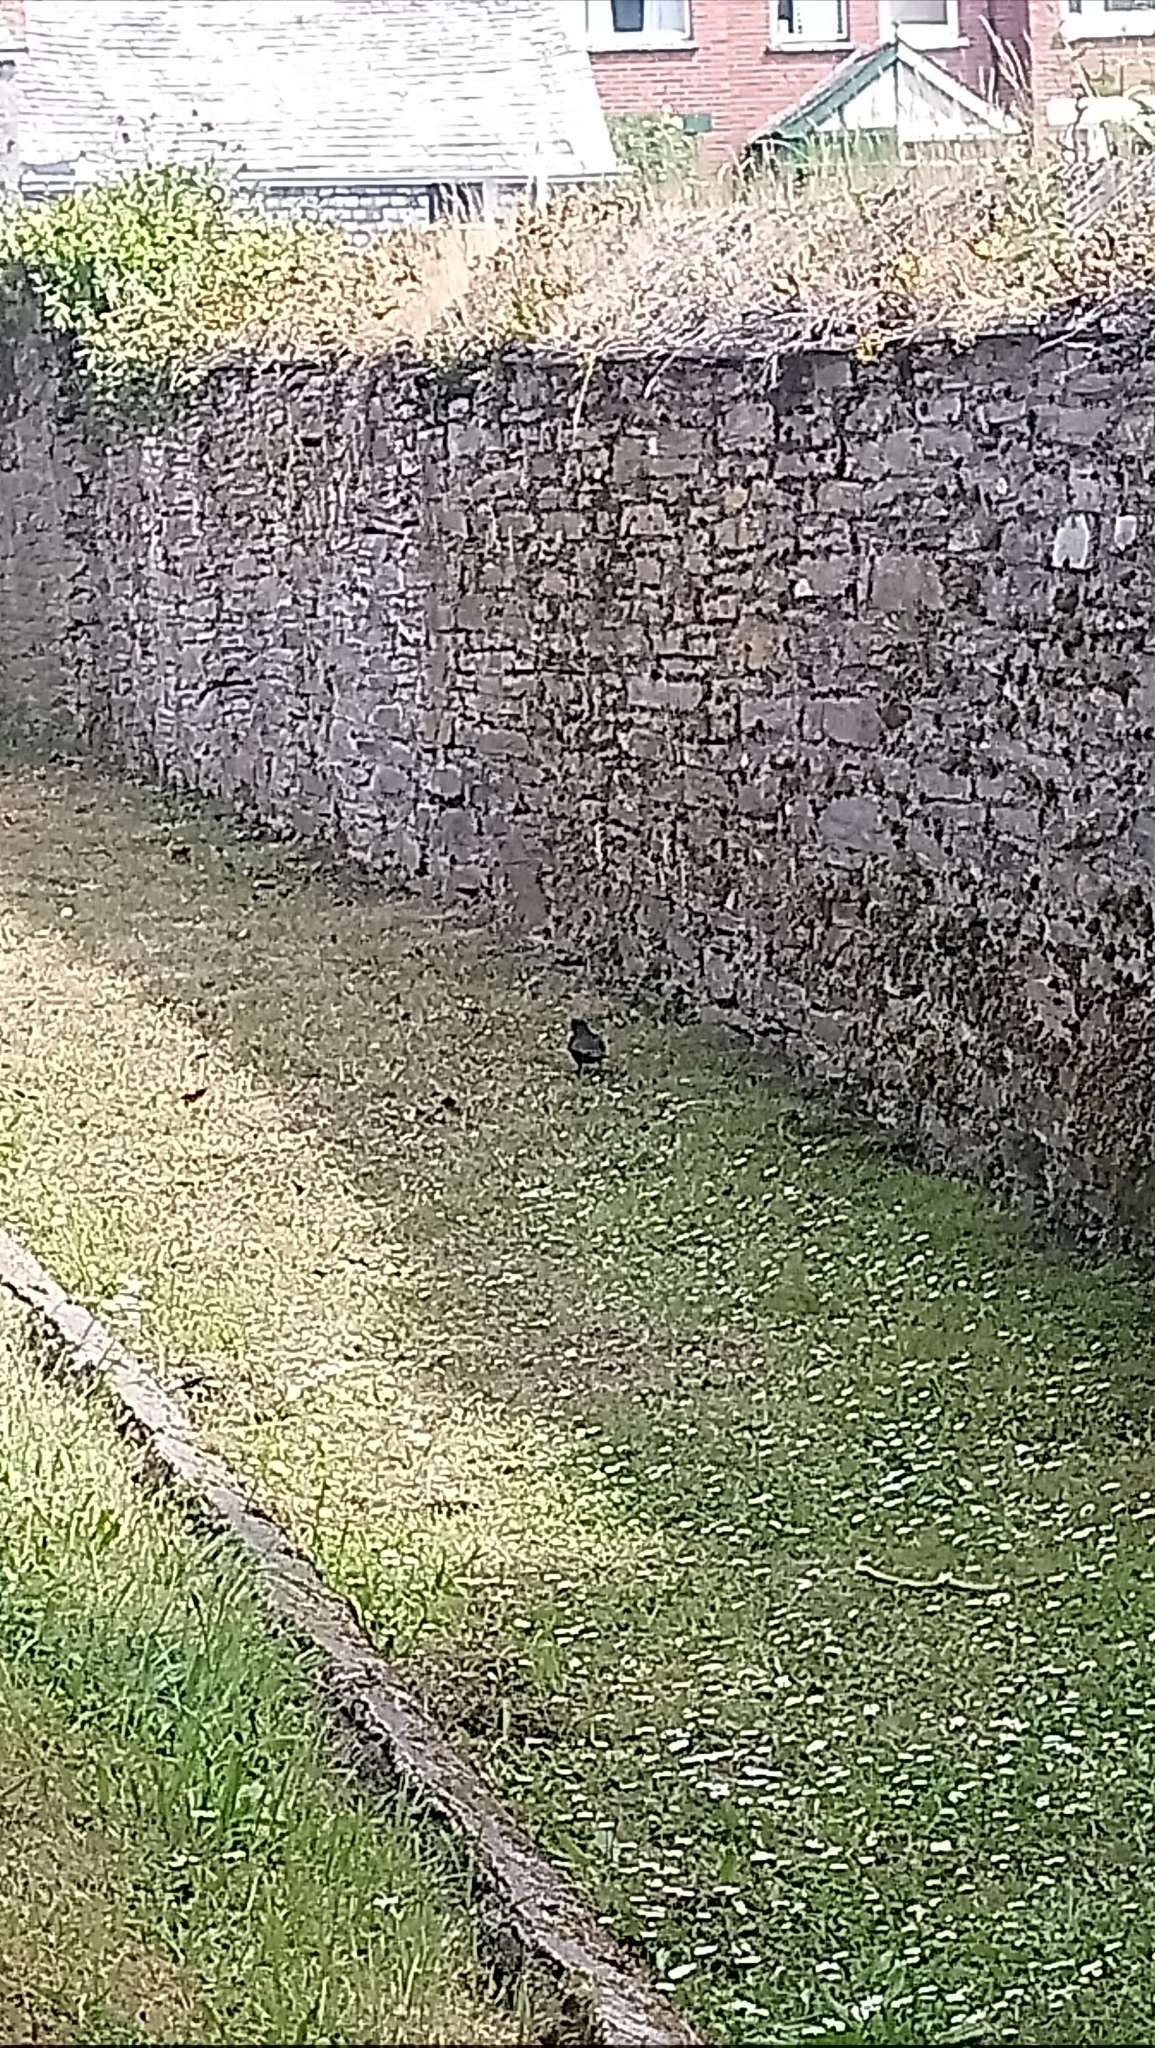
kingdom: Animalia
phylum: Chordata
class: Aves
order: Passeriformes
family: Turdidae
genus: Turdus
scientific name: Turdus merula
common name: Common blackbird
